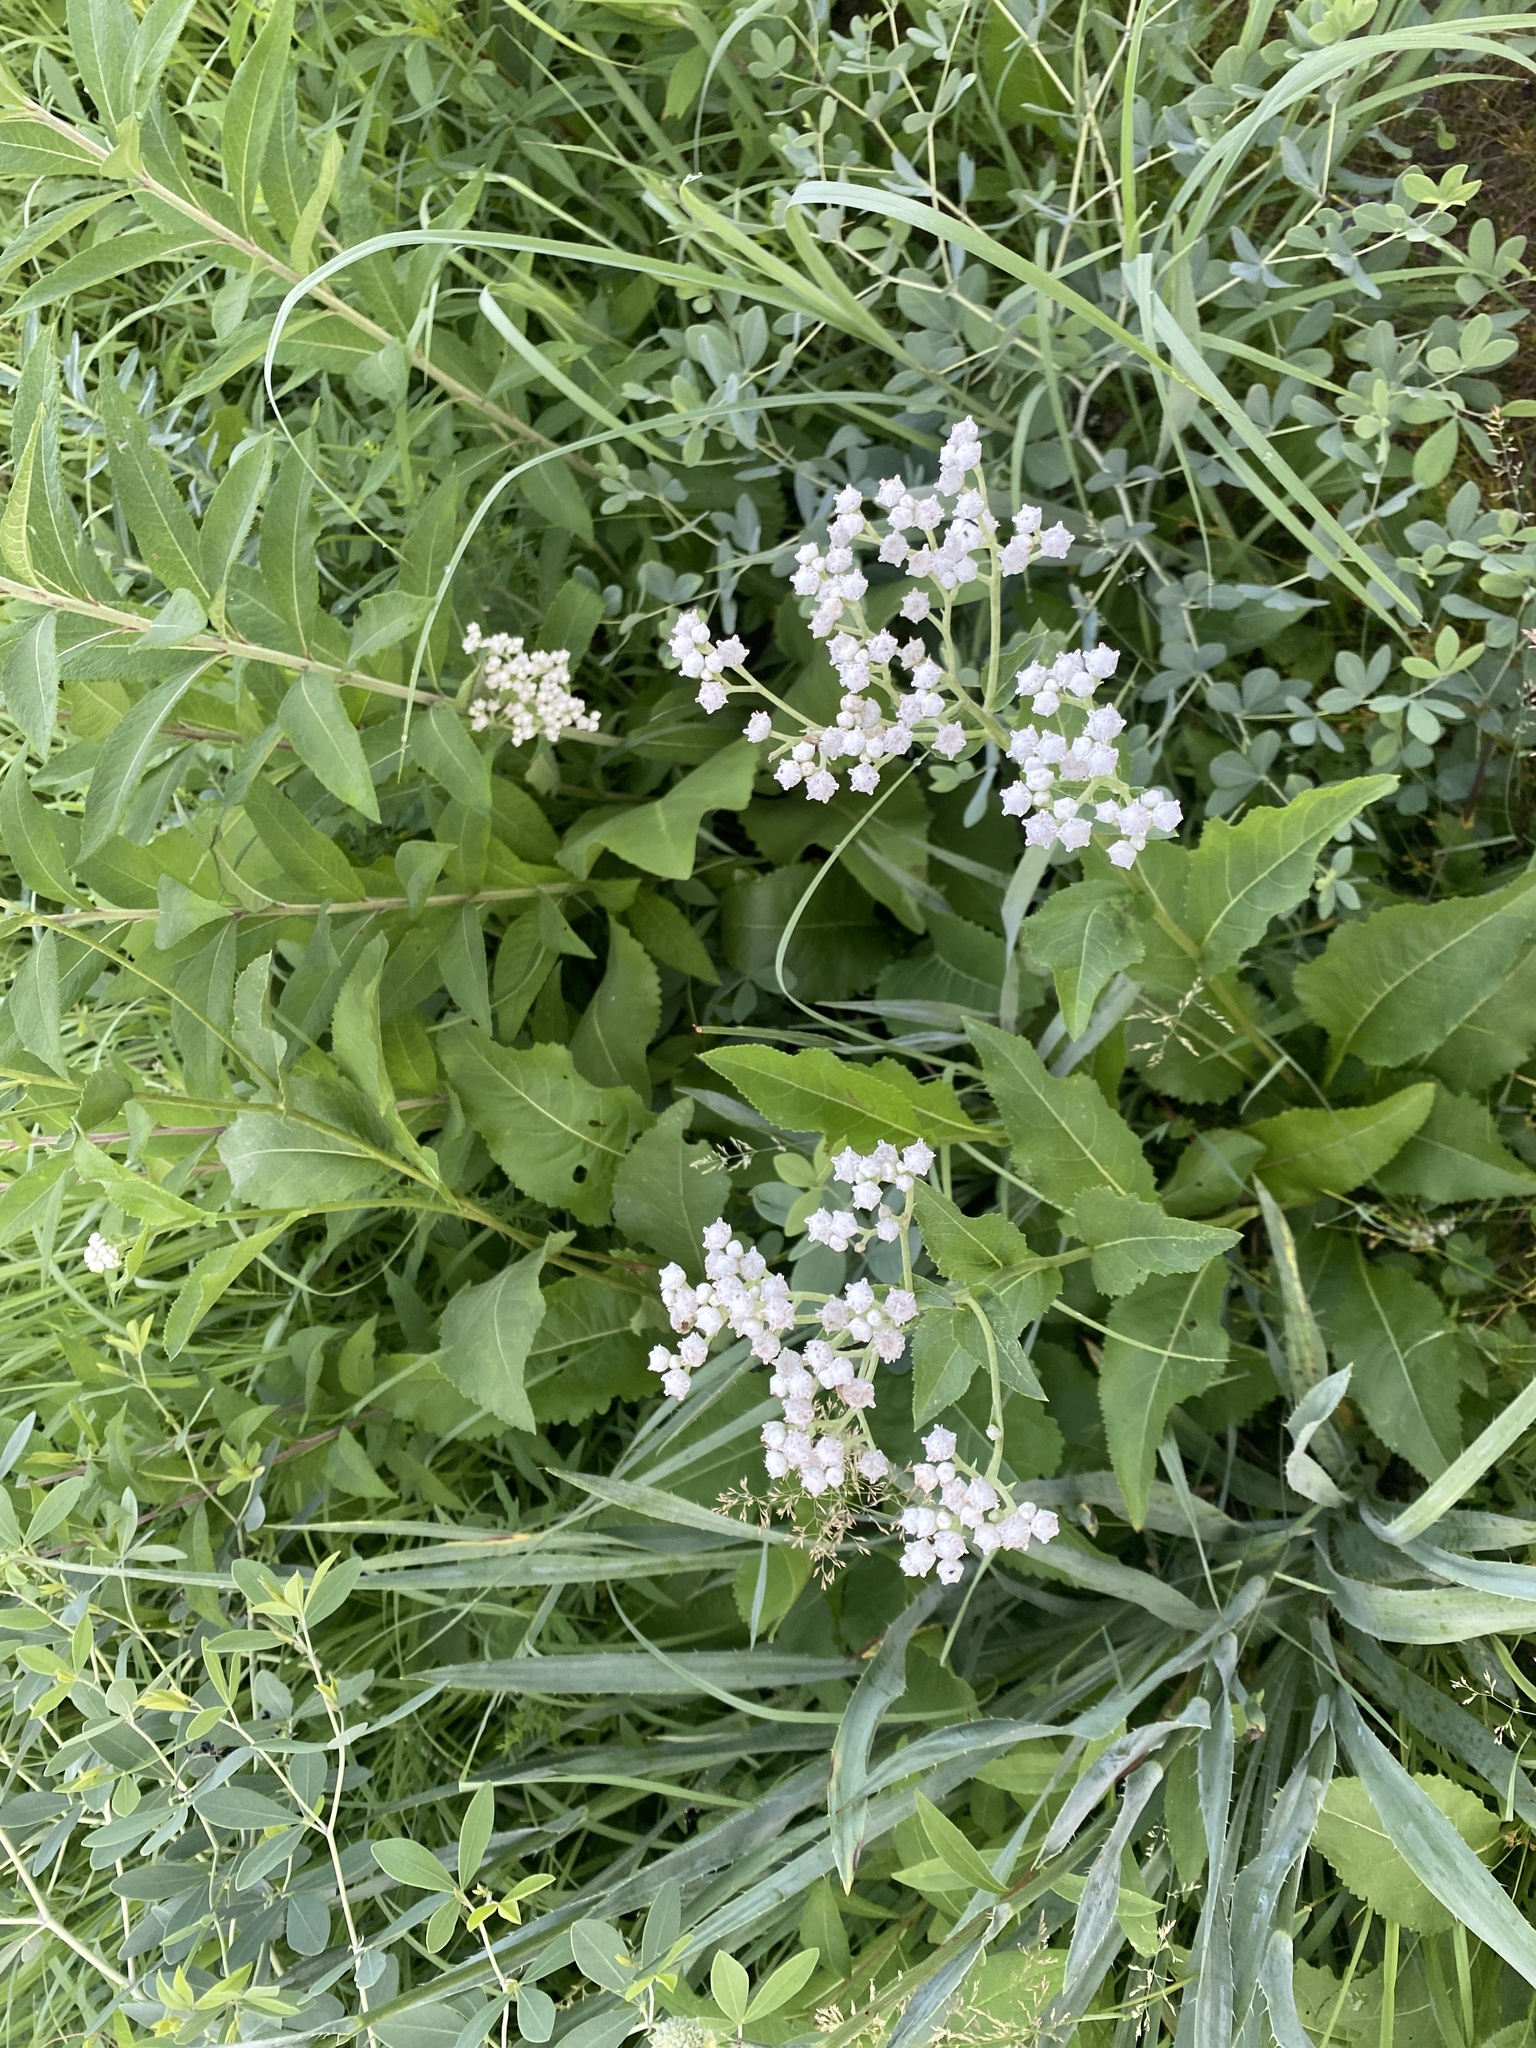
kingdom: Plantae
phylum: Tracheophyta
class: Magnoliopsida
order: Asterales
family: Asteraceae
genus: Parthenium
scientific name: Parthenium integrifolium
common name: American feverfew
